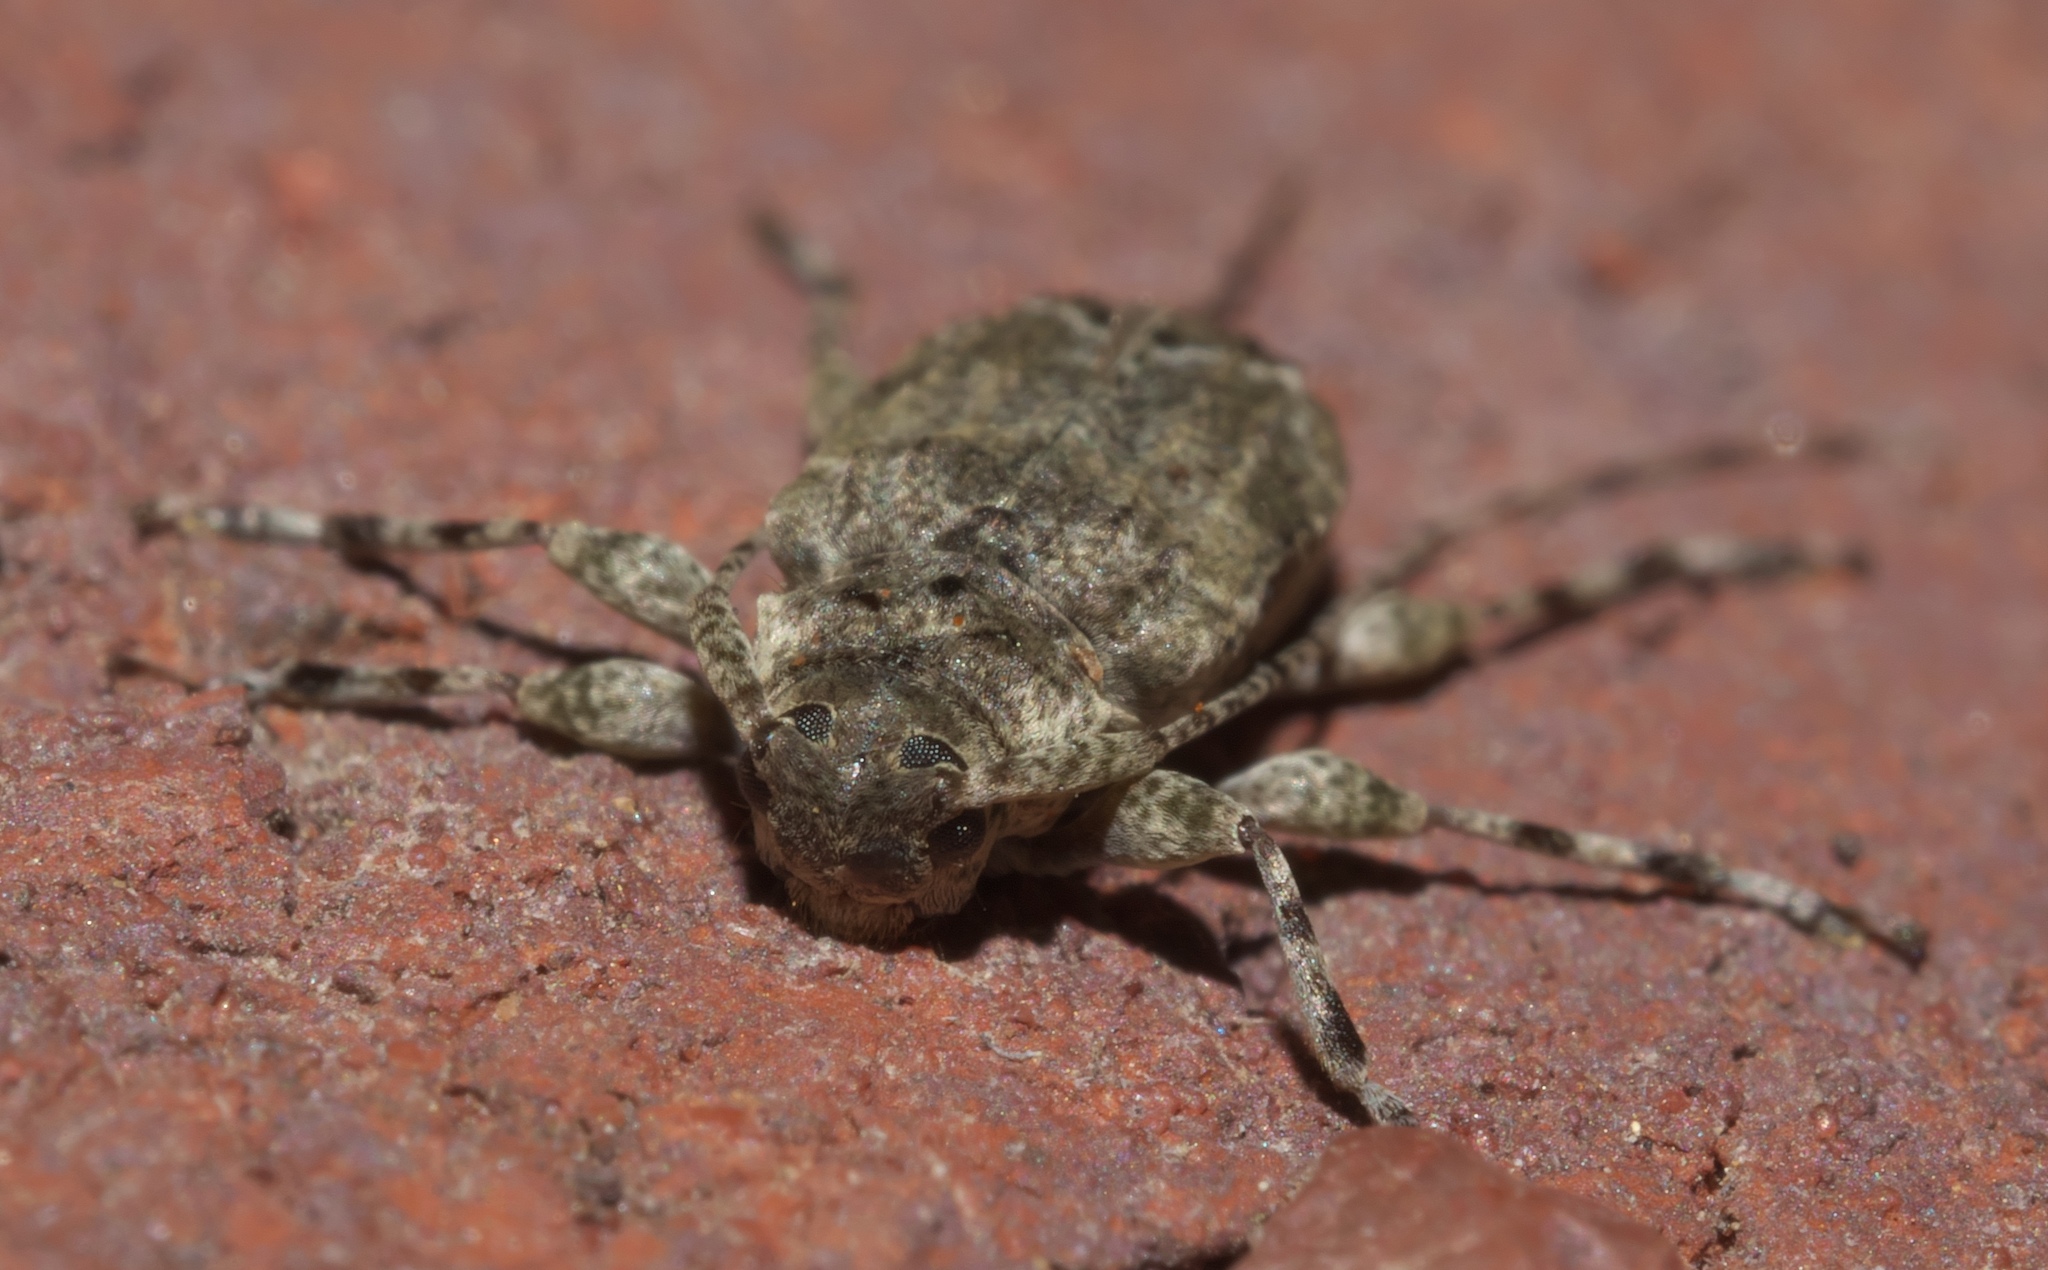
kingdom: Animalia
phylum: Arthropoda
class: Insecta
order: Coleoptera
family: Cerambycidae
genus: Astylidius
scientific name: Astylidius parvus
